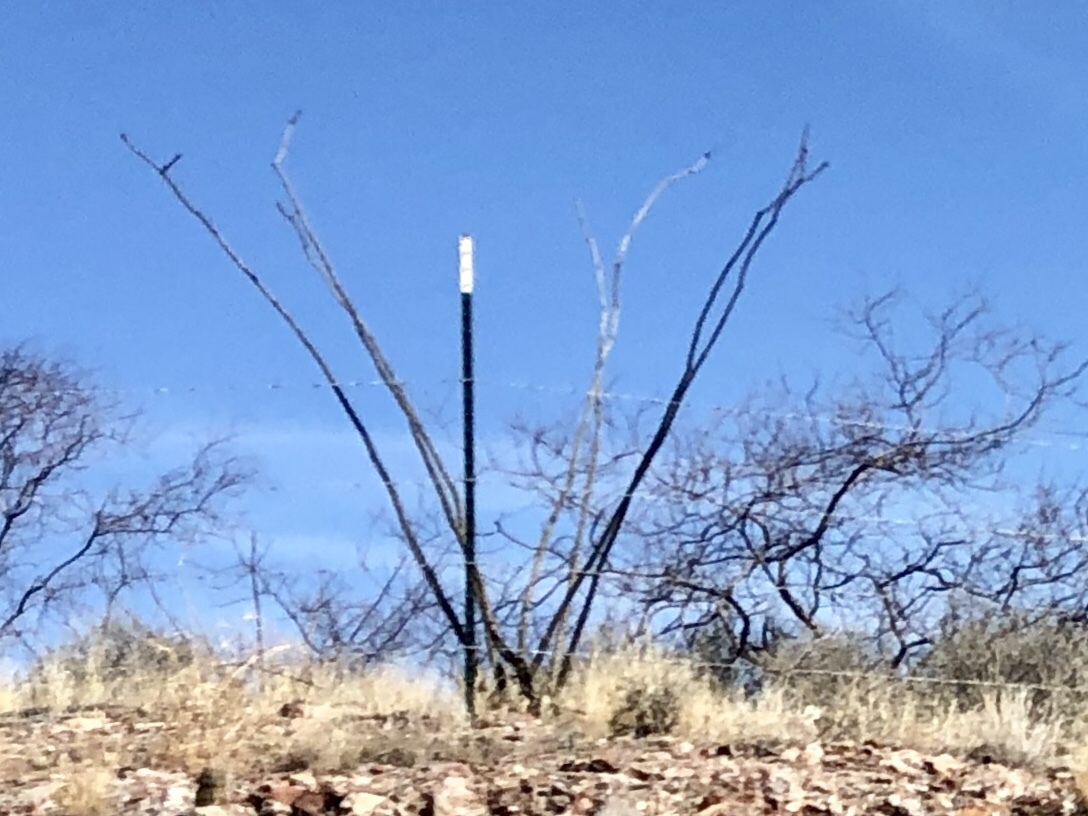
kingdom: Plantae
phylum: Tracheophyta
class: Magnoliopsida
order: Ericales
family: Fouquieriaceae
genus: Fouquieria
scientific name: Fouquieria splendens
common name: Vine-cactus
